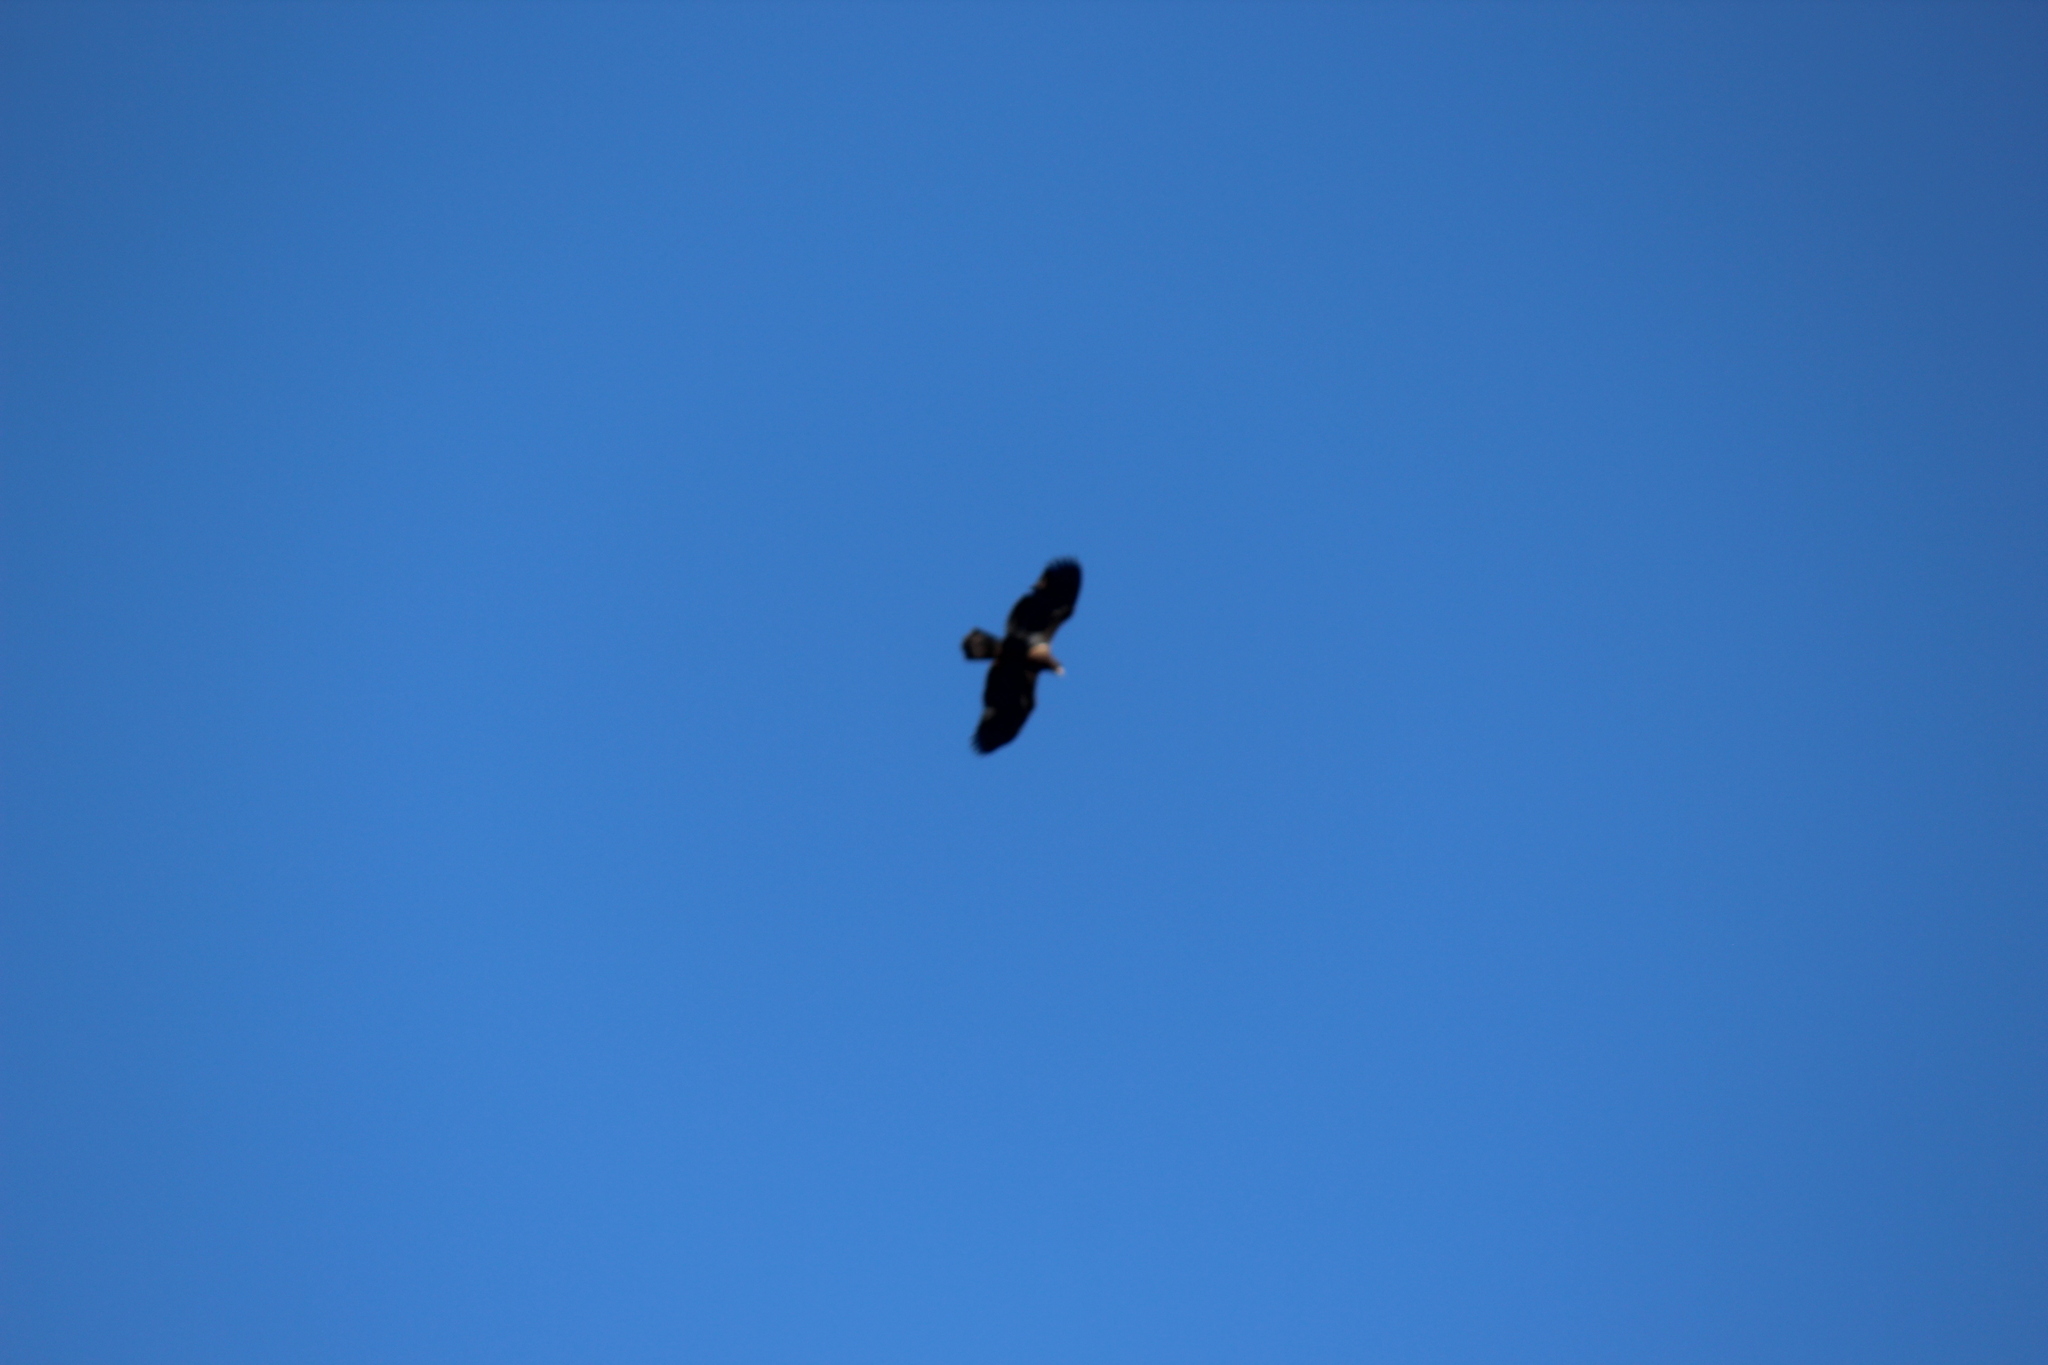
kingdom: Animalia
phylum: Chordata
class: Aves
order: Accipitriformes
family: Accipitridae
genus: Haliaeetus
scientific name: Haliaeetus leucocephalus
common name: Bald eagle
